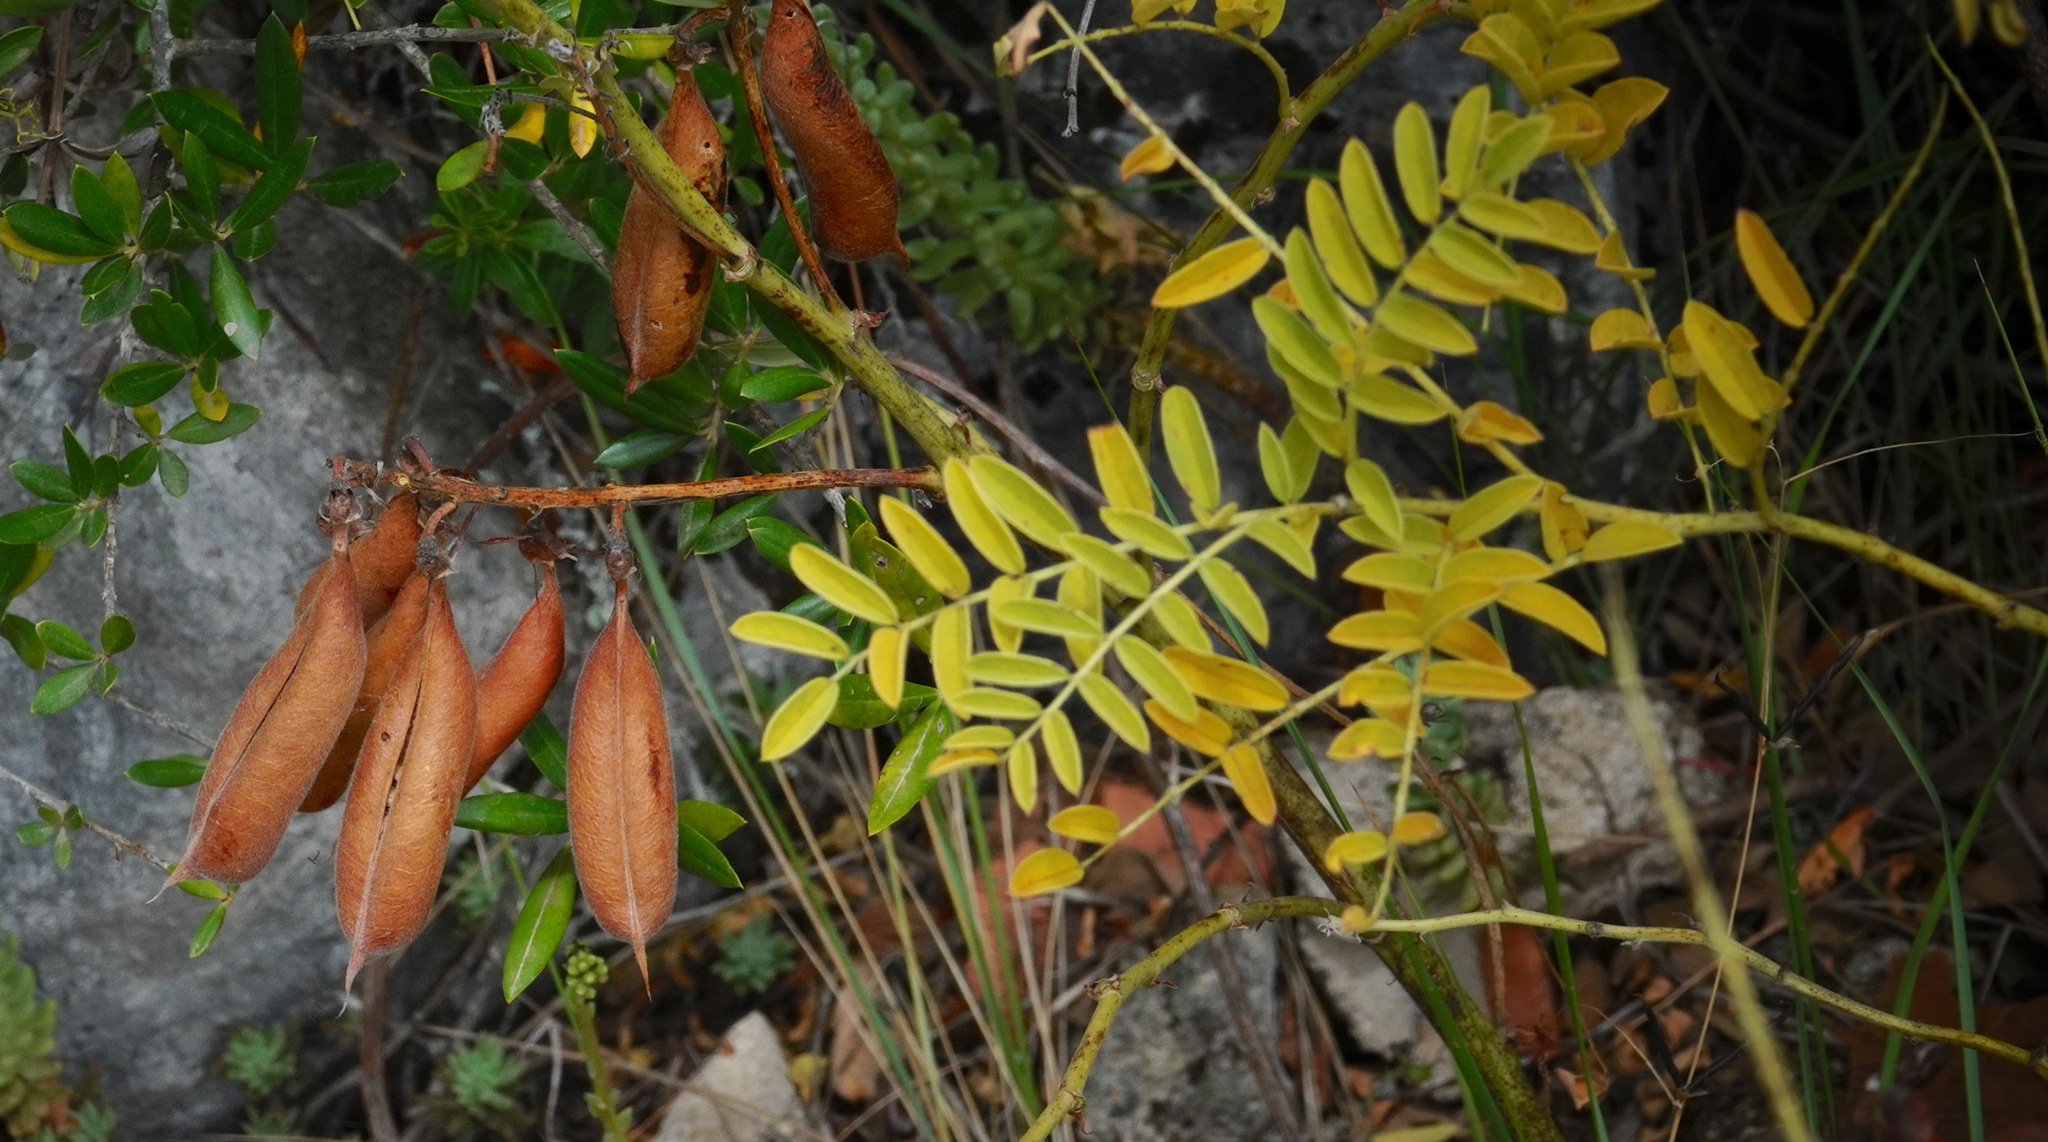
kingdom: Plantae
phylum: Tracheophyta
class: Magnoliopsida
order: Fabales
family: Fabaceae
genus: Erophaca
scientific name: Erophaca baetica
